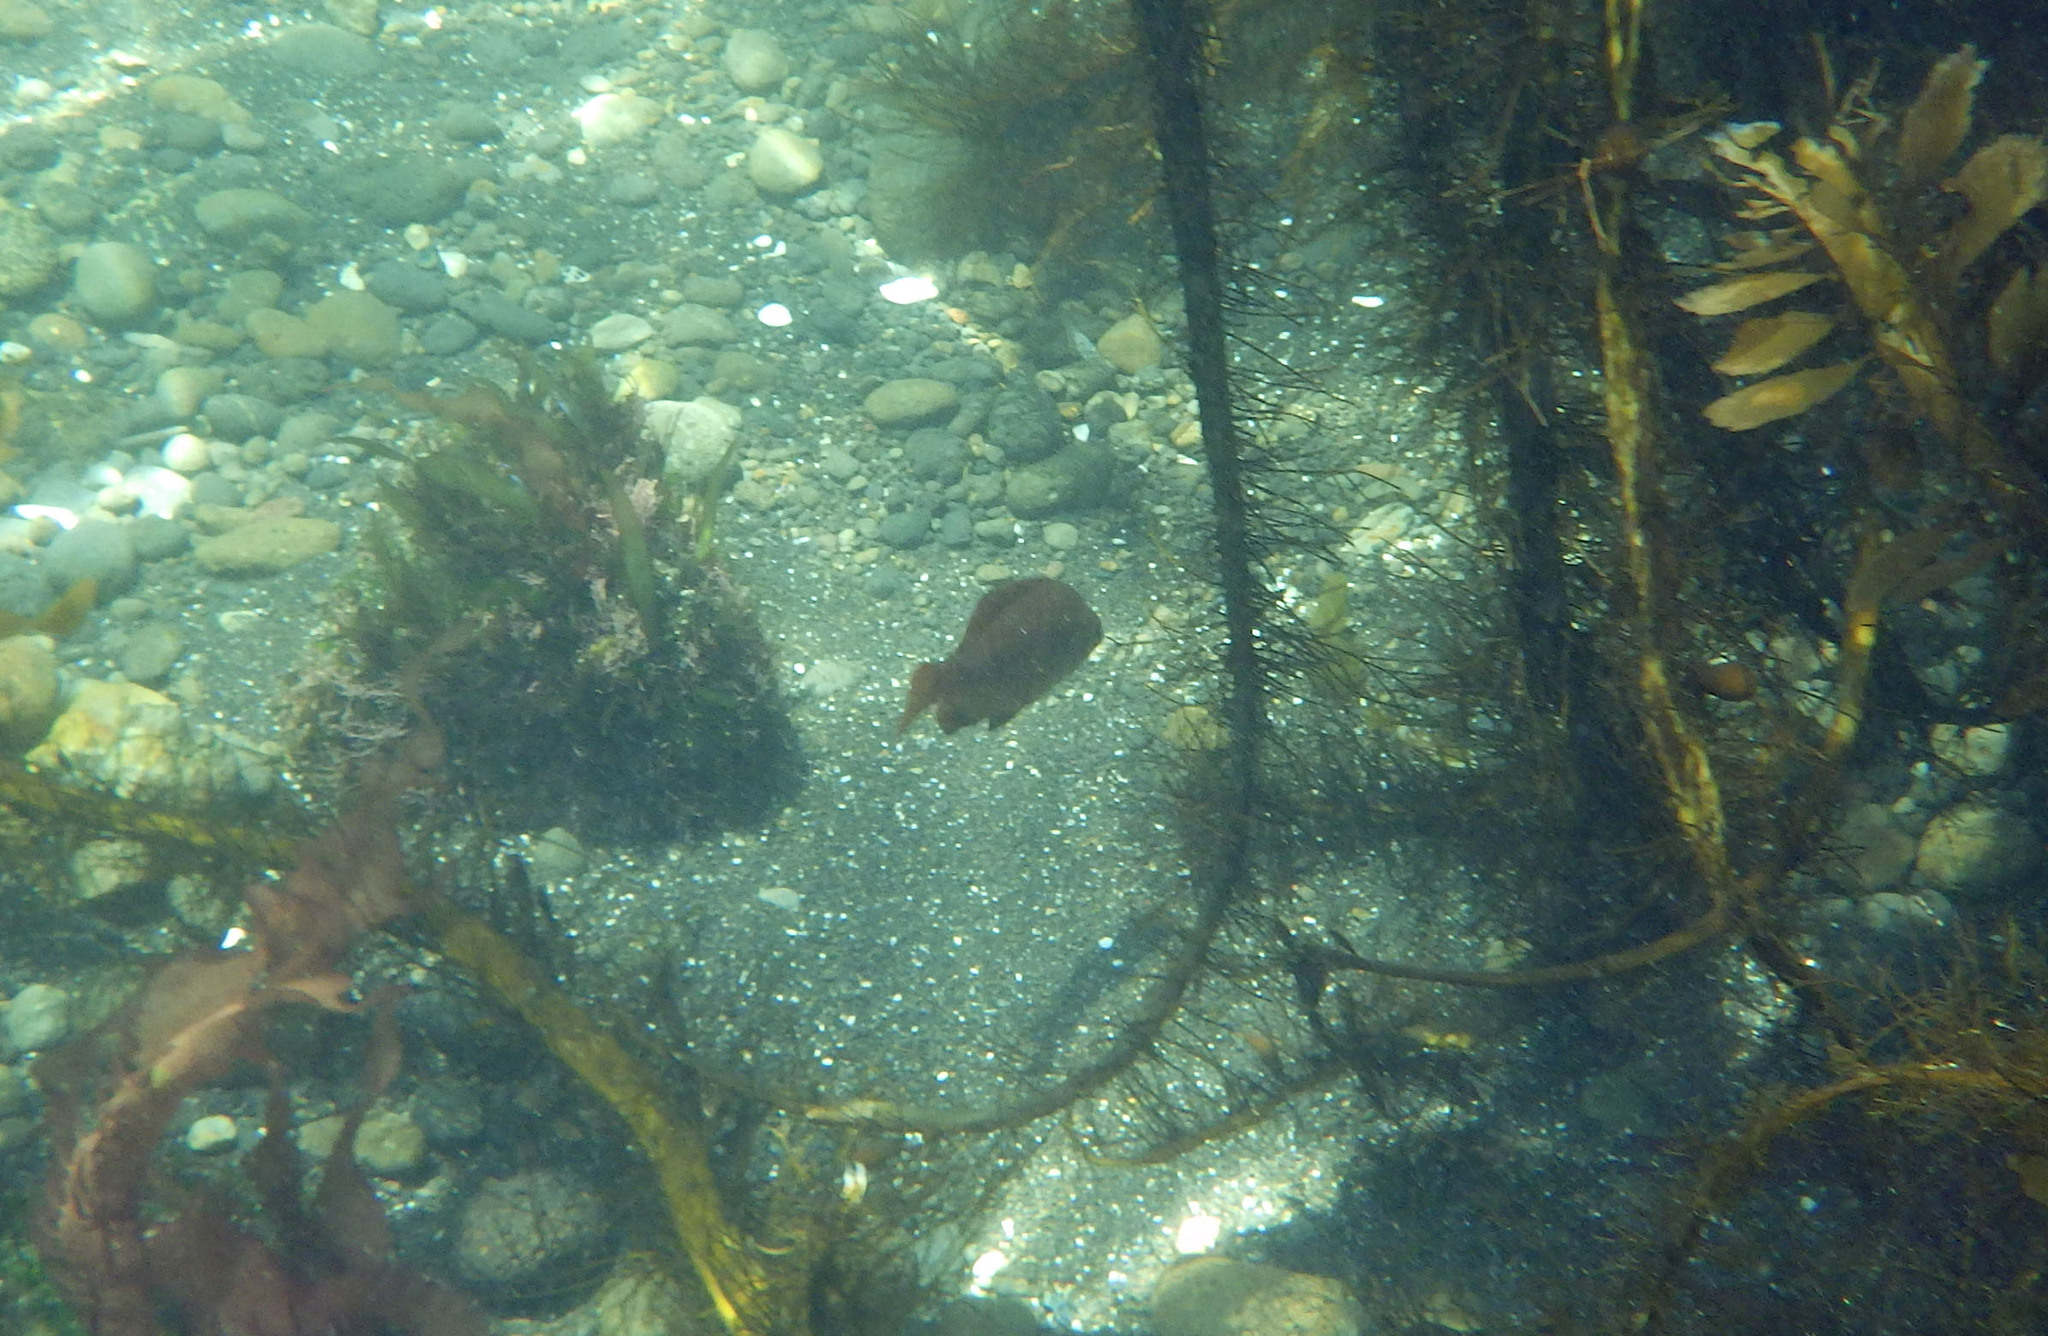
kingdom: Animalia
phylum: Chordata
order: Perciformes
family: Embiotocidae
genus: Embiotoca
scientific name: Embiotoca jacksoni
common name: Black perch
